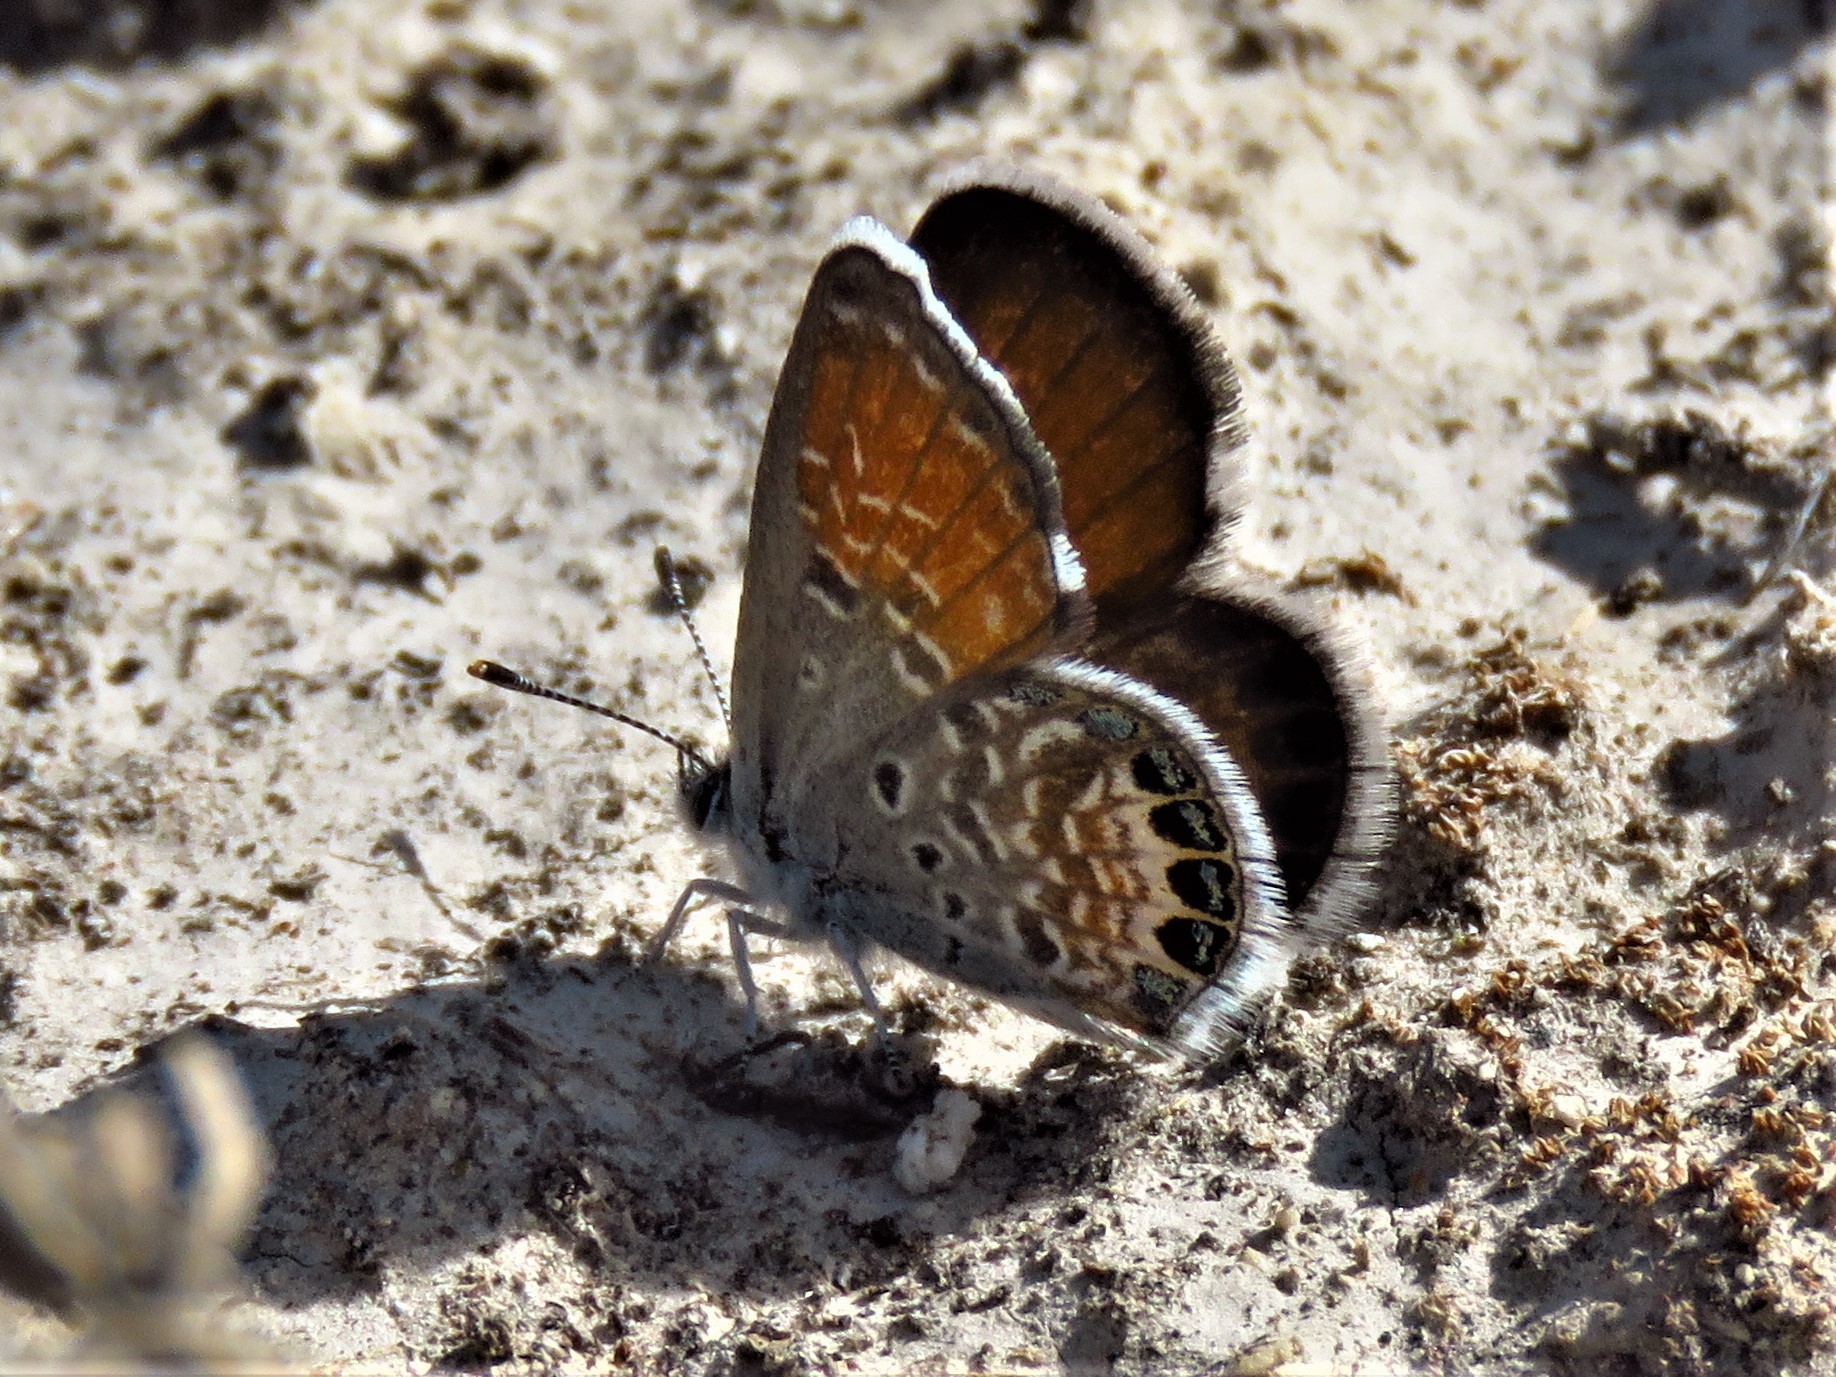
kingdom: Animalia
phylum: Arthropoda
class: Insecta
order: Lepidoptera
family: Lycaenidae
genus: Brephidium
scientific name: Brephidium exilis
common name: Pygmy blue
